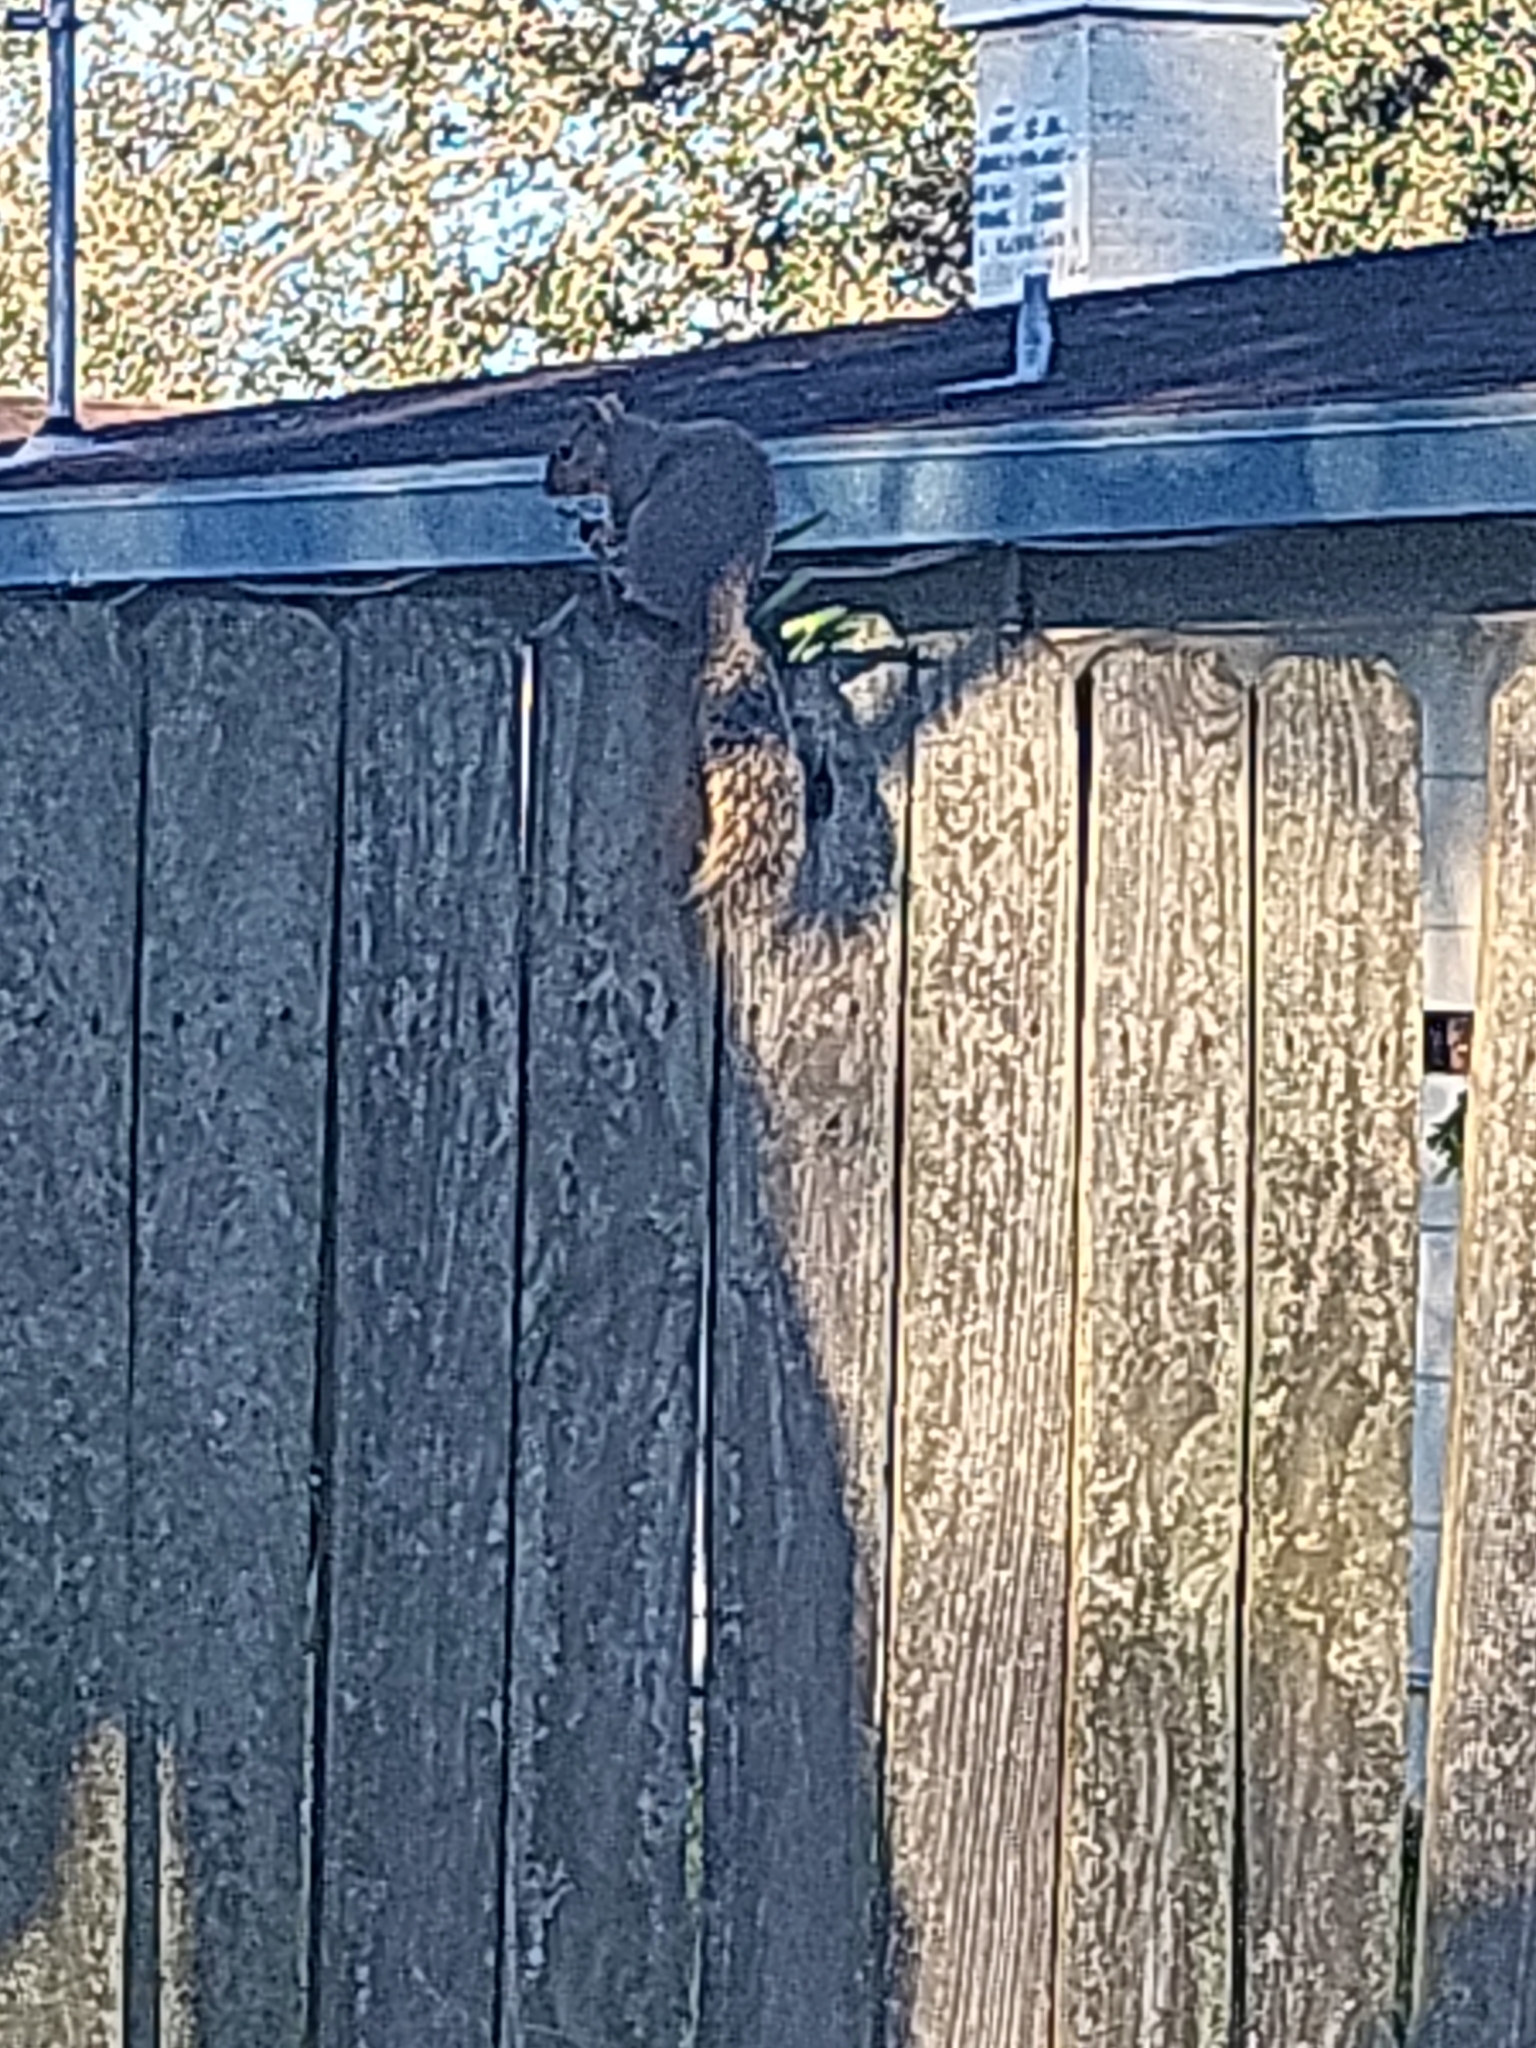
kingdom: Animalia
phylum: Chordata
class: Mammalia
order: Rodentia
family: Sciuridae
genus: Sciurus
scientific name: Sciurus niger
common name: Fox squirrel
